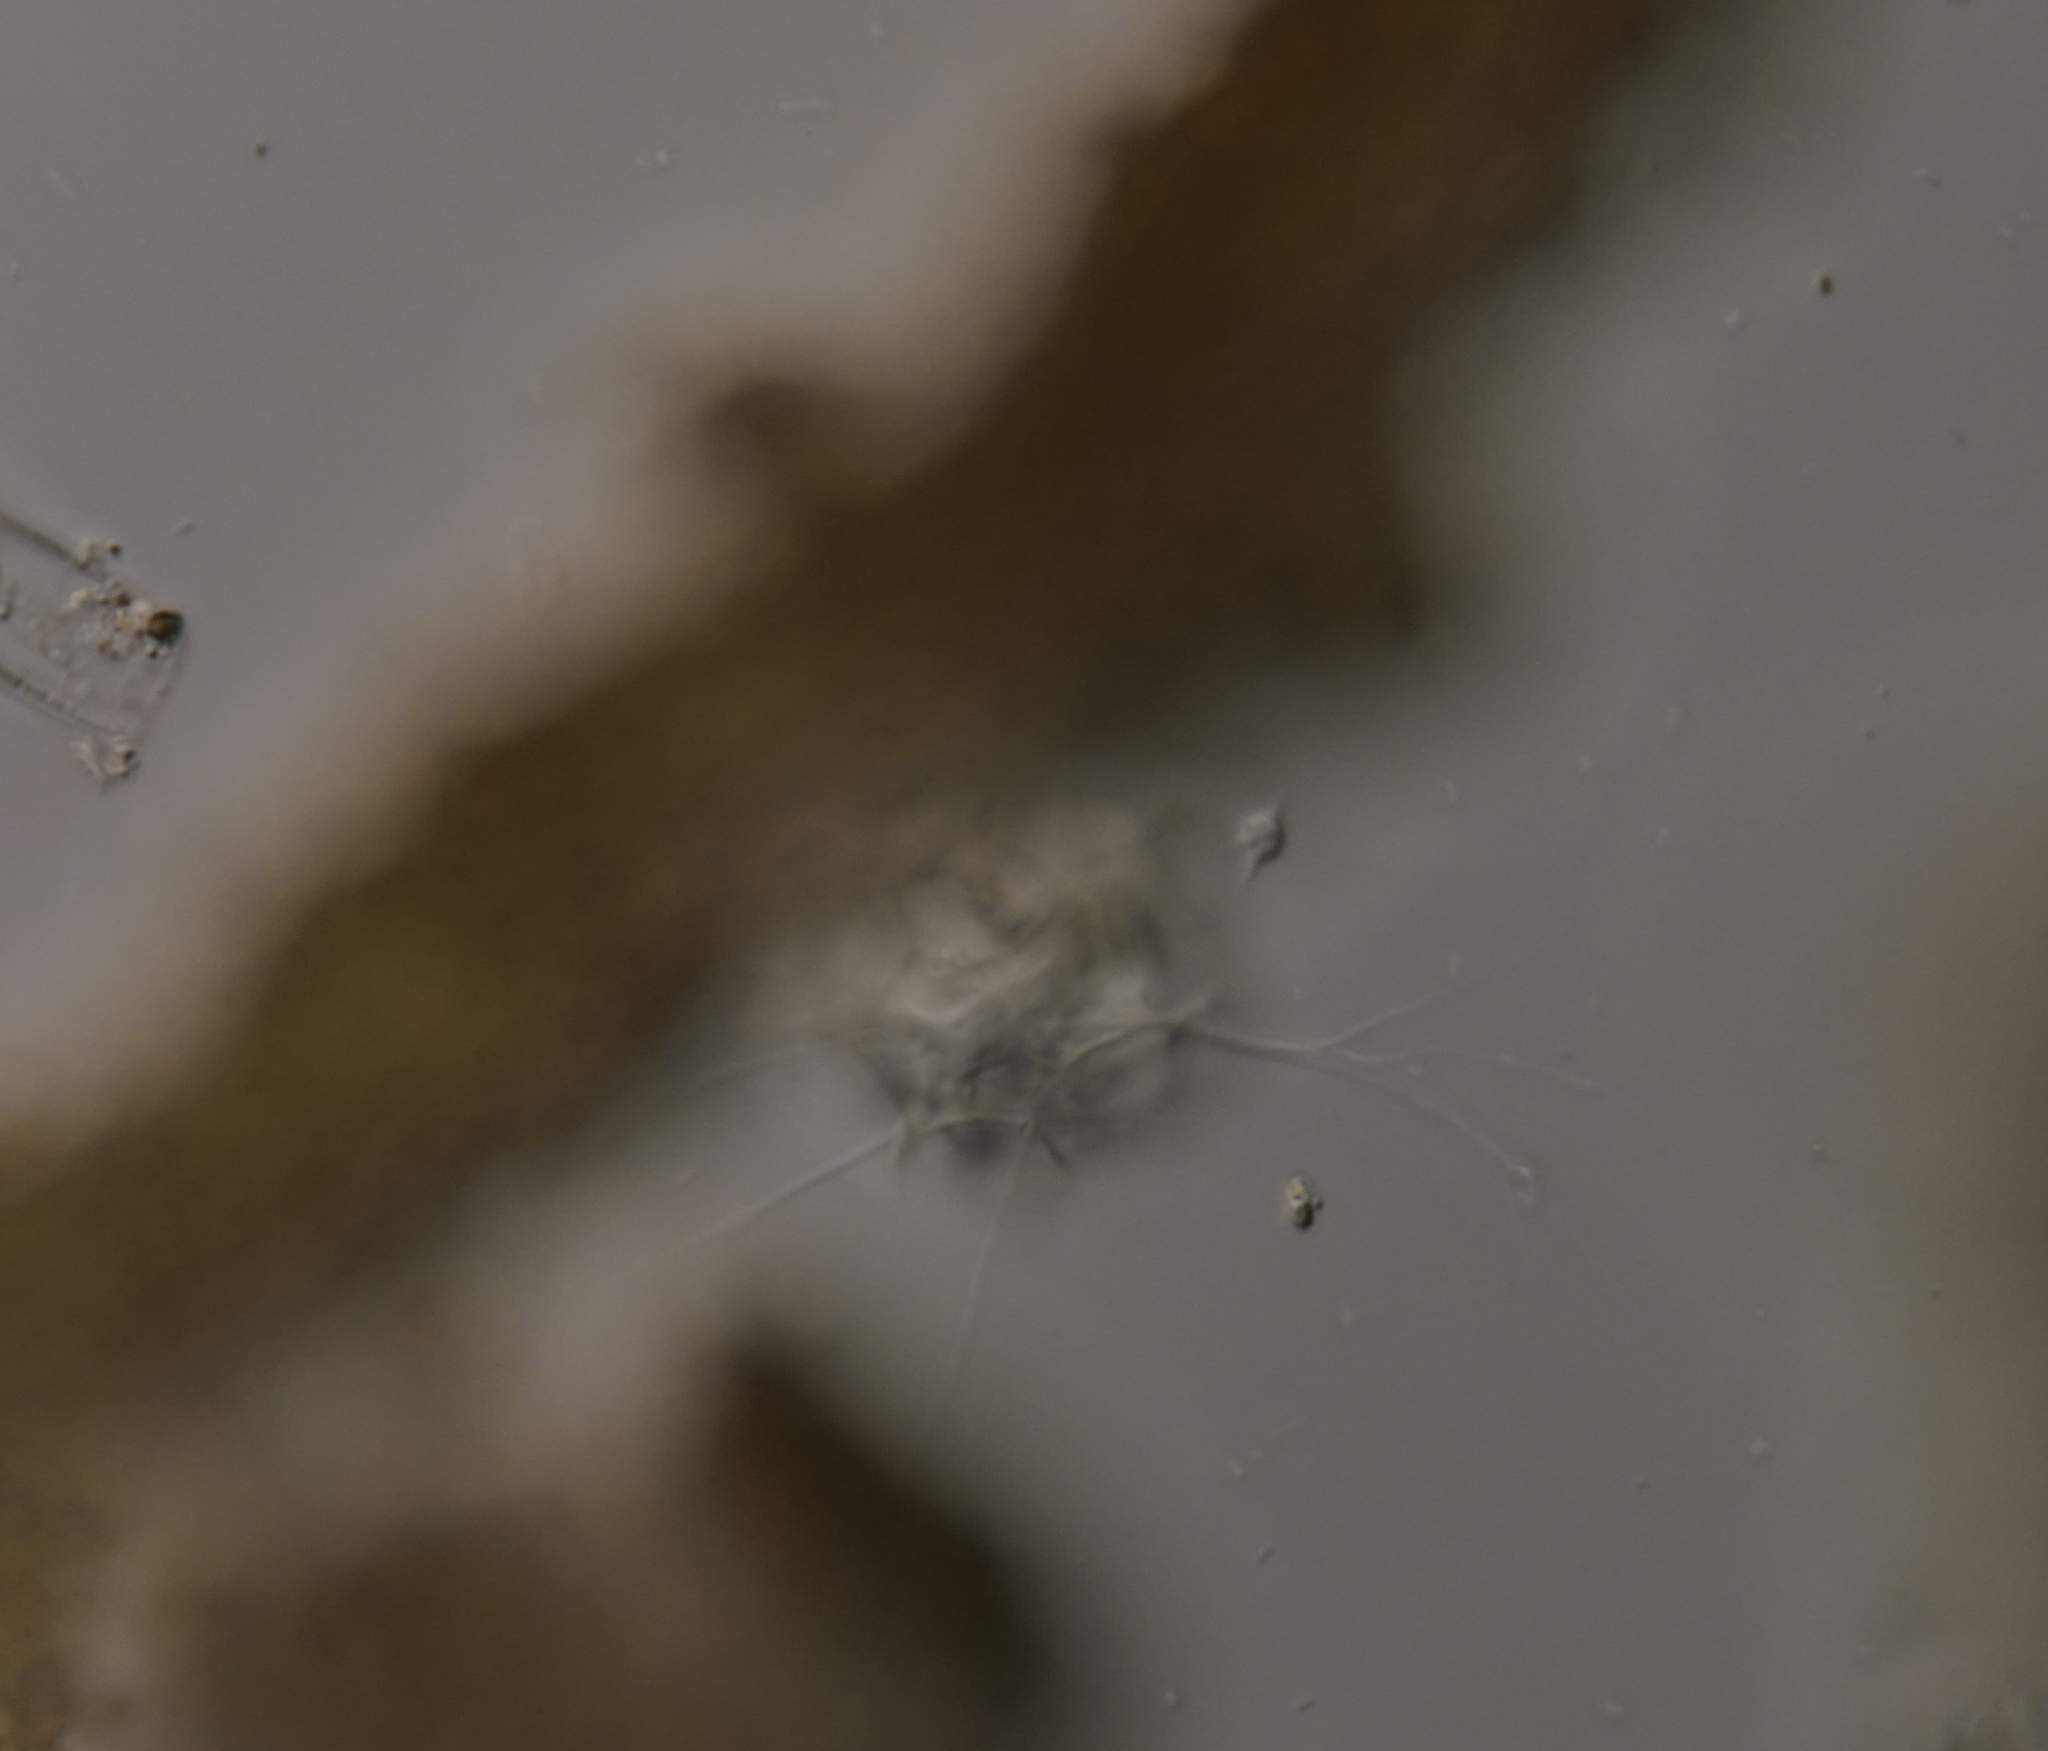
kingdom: Chromista
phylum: Heliozoa
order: Desmothoracida
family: Clathrulinidae
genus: Hedriocystis
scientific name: Hedriocystis
